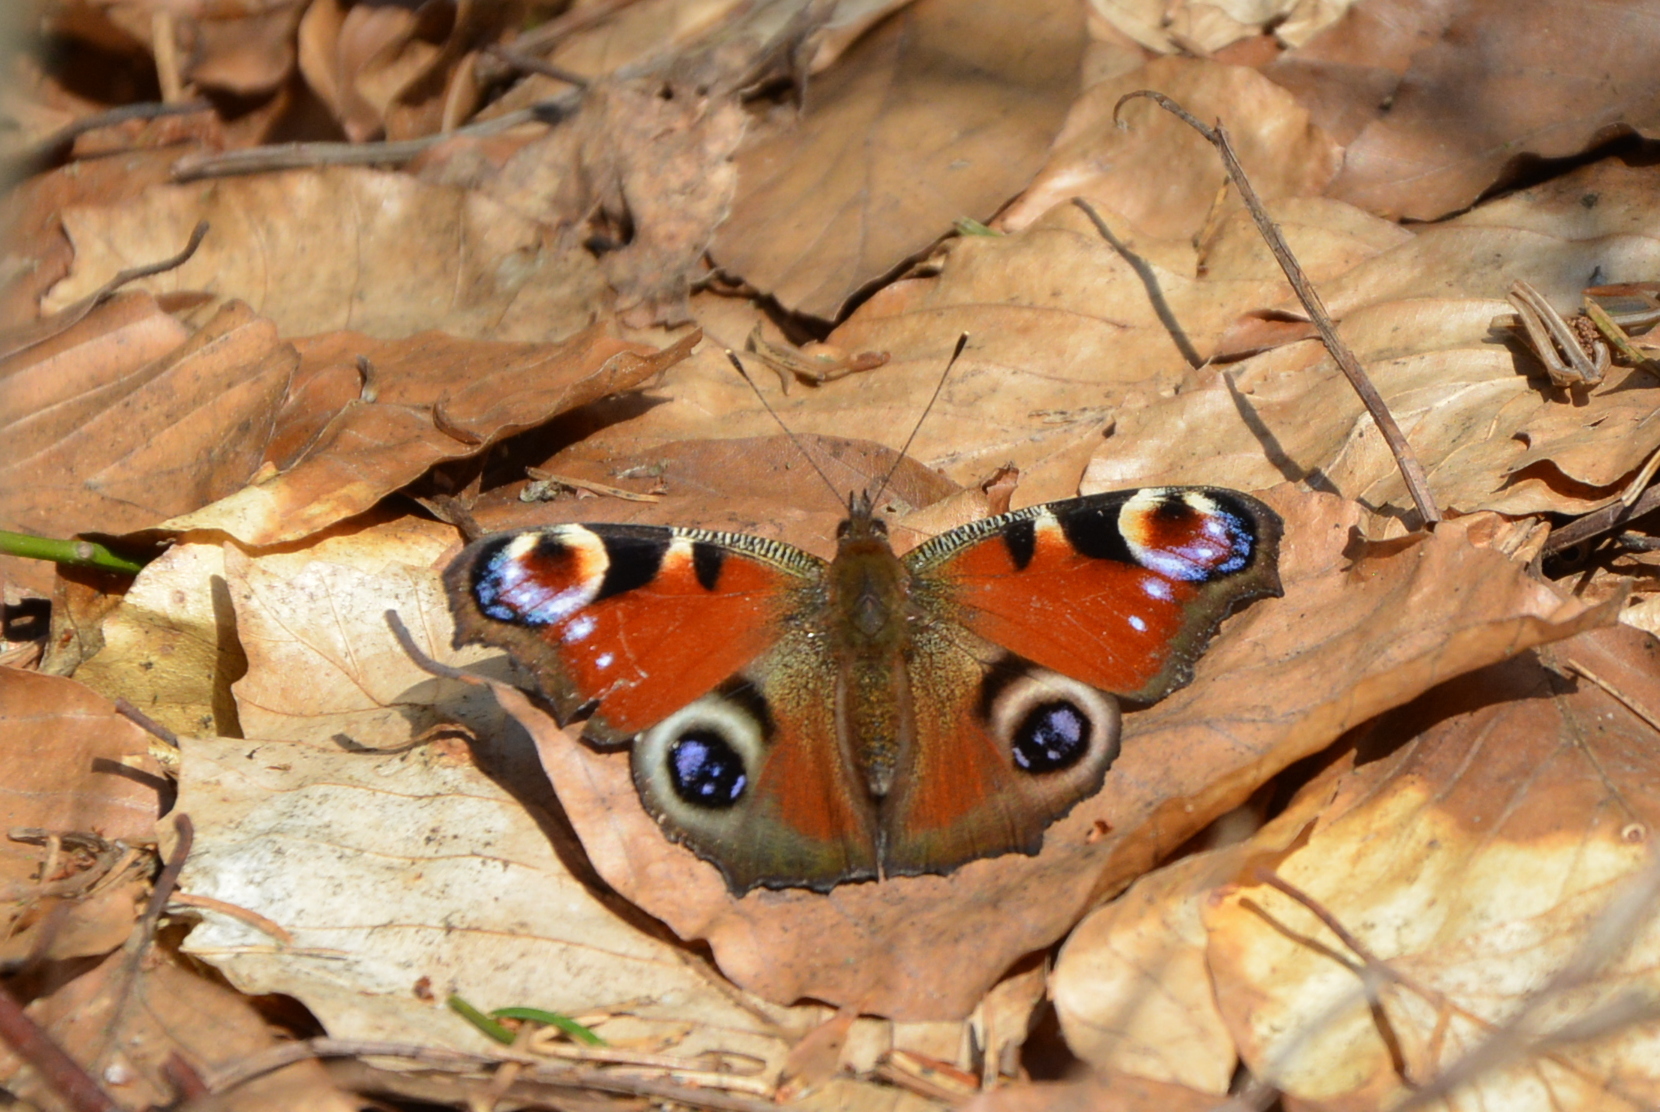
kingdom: Animalia
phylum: Arthropoda
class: Insecta
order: Lepidoptera
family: Nymphalidae
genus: Aglais
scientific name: Aglais io
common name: Peacock
